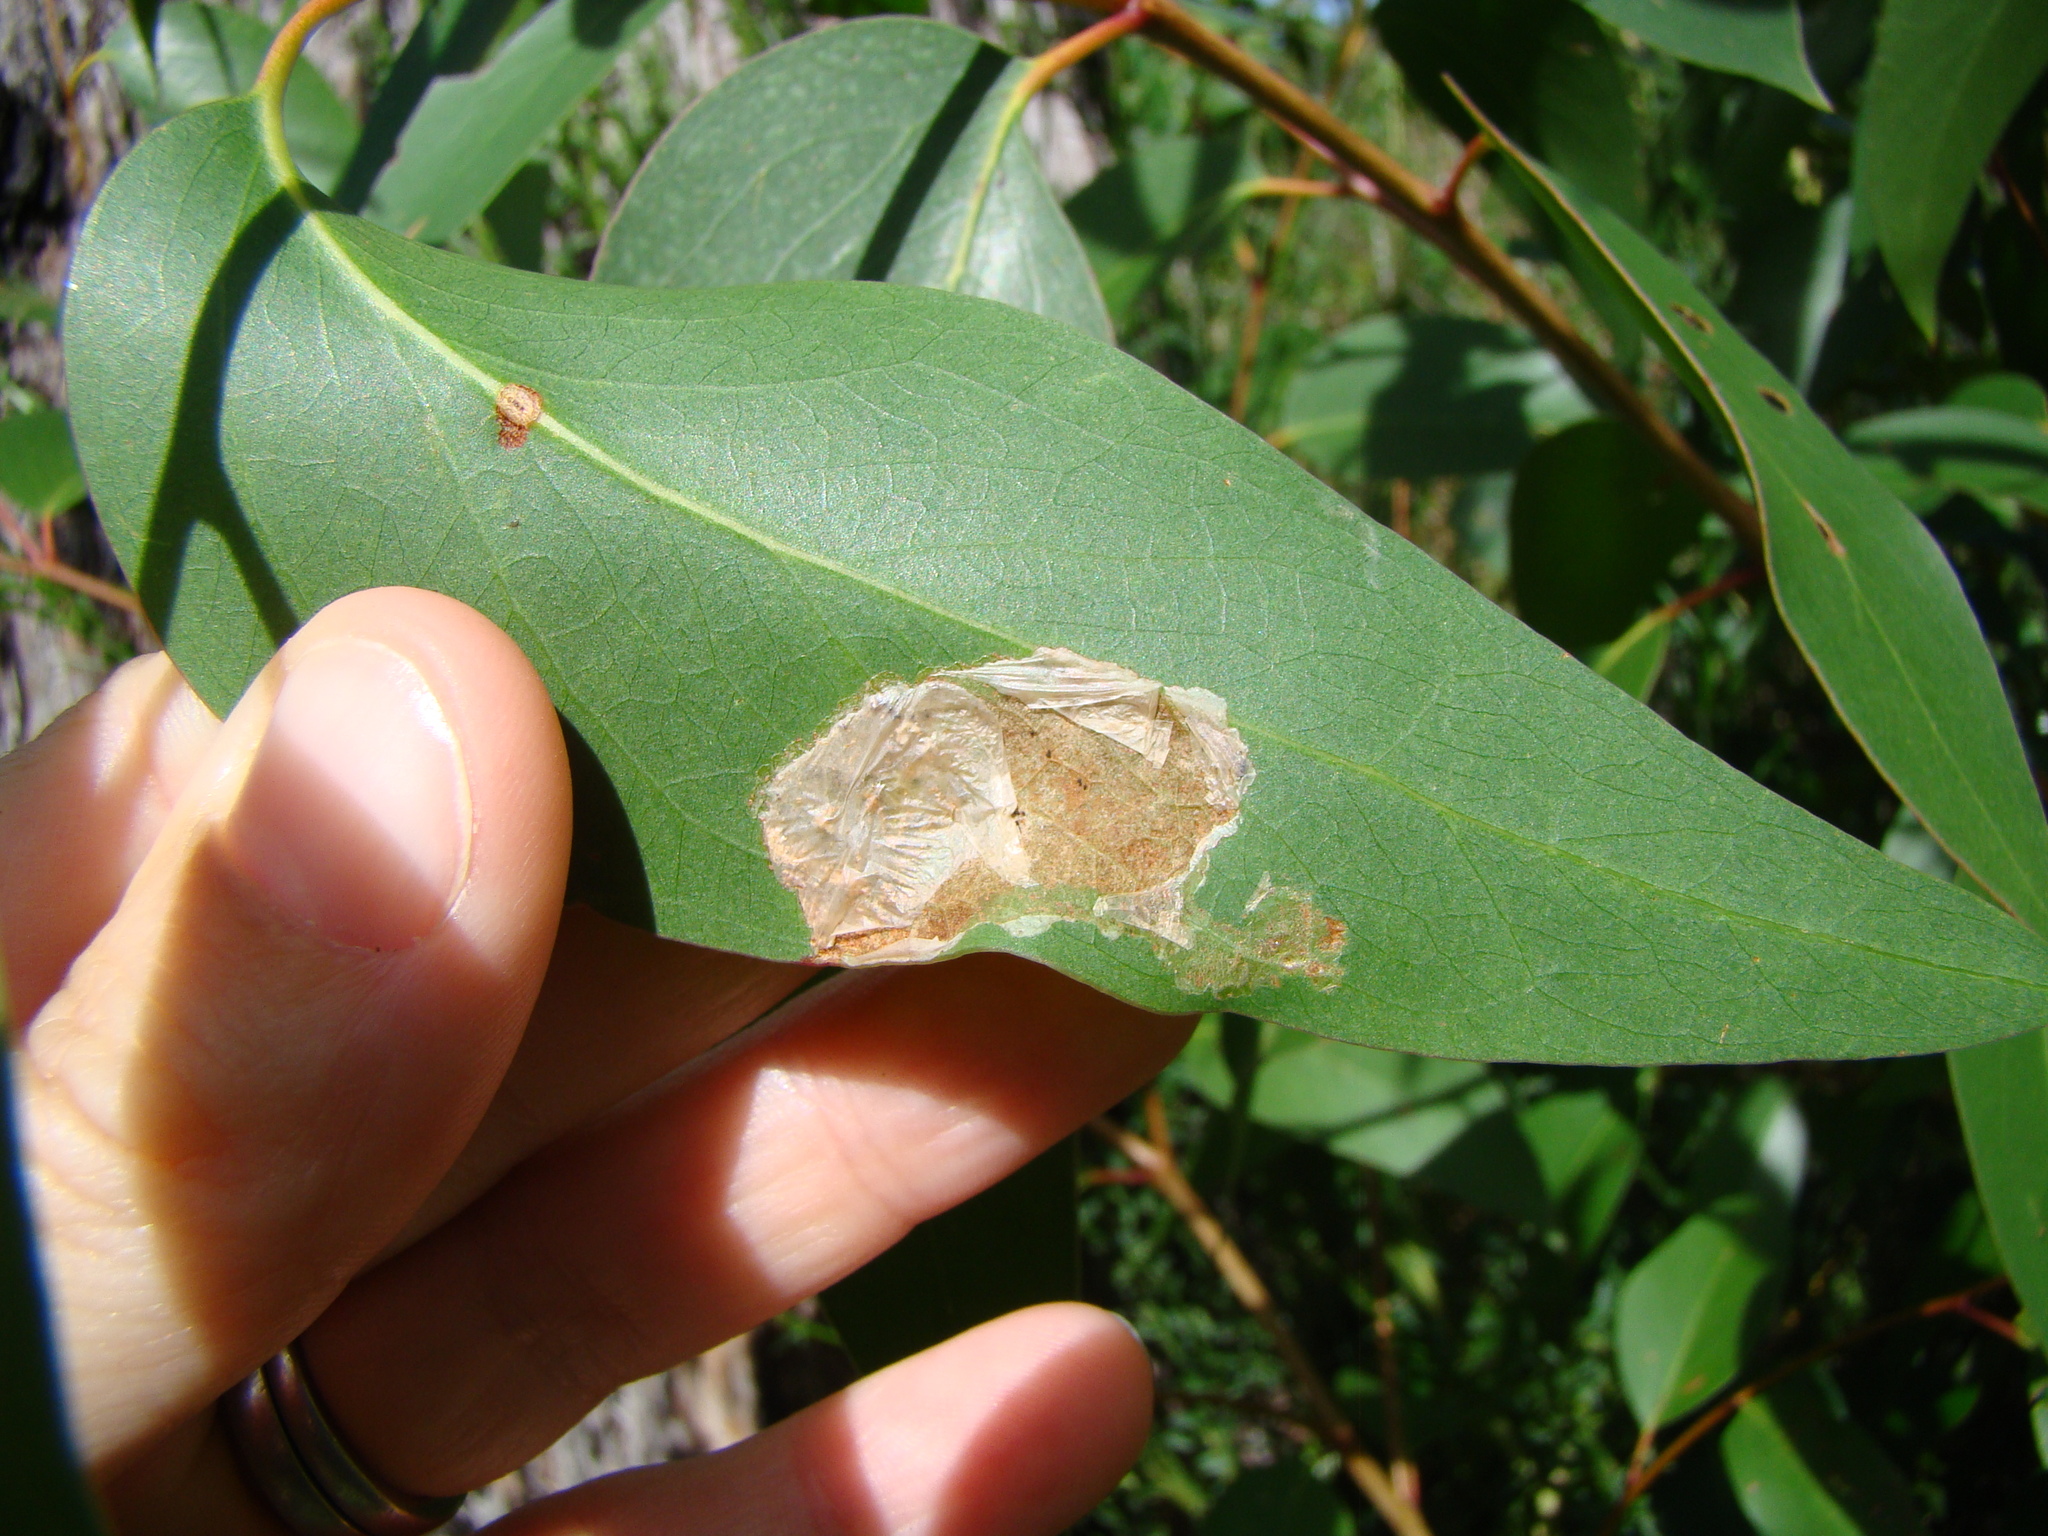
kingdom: Animalia
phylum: Arthropoda
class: Insecta
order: Hymenoptera
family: Pergidae
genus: Phylacteophaga
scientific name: Phylacteophaga froggatti
